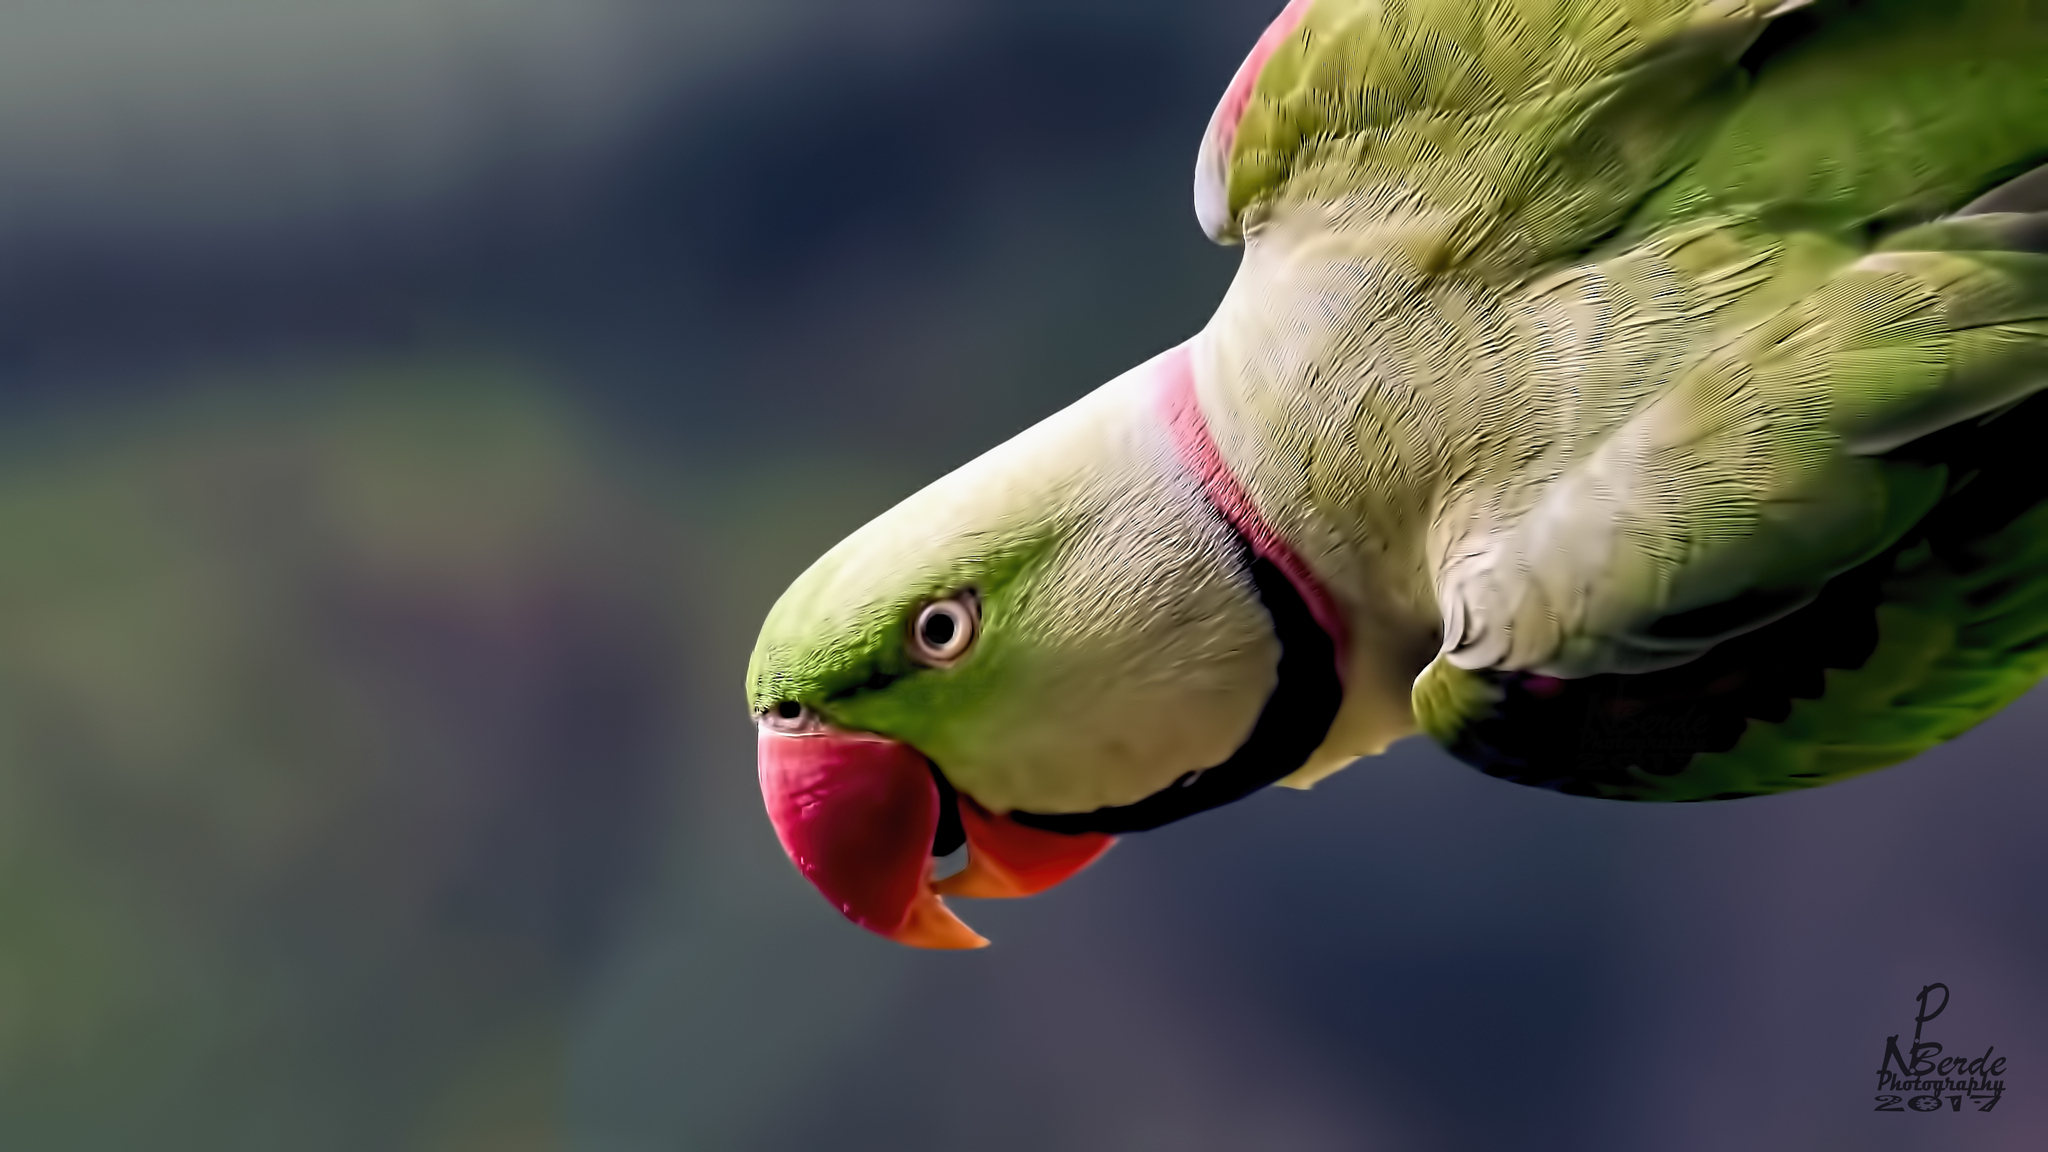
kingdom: Animalia
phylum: Chordata
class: Aves
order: Psittaciformes
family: Psittacidae
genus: Psittacula
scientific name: Psittacula eupatria
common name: Alexandrine parakeet
